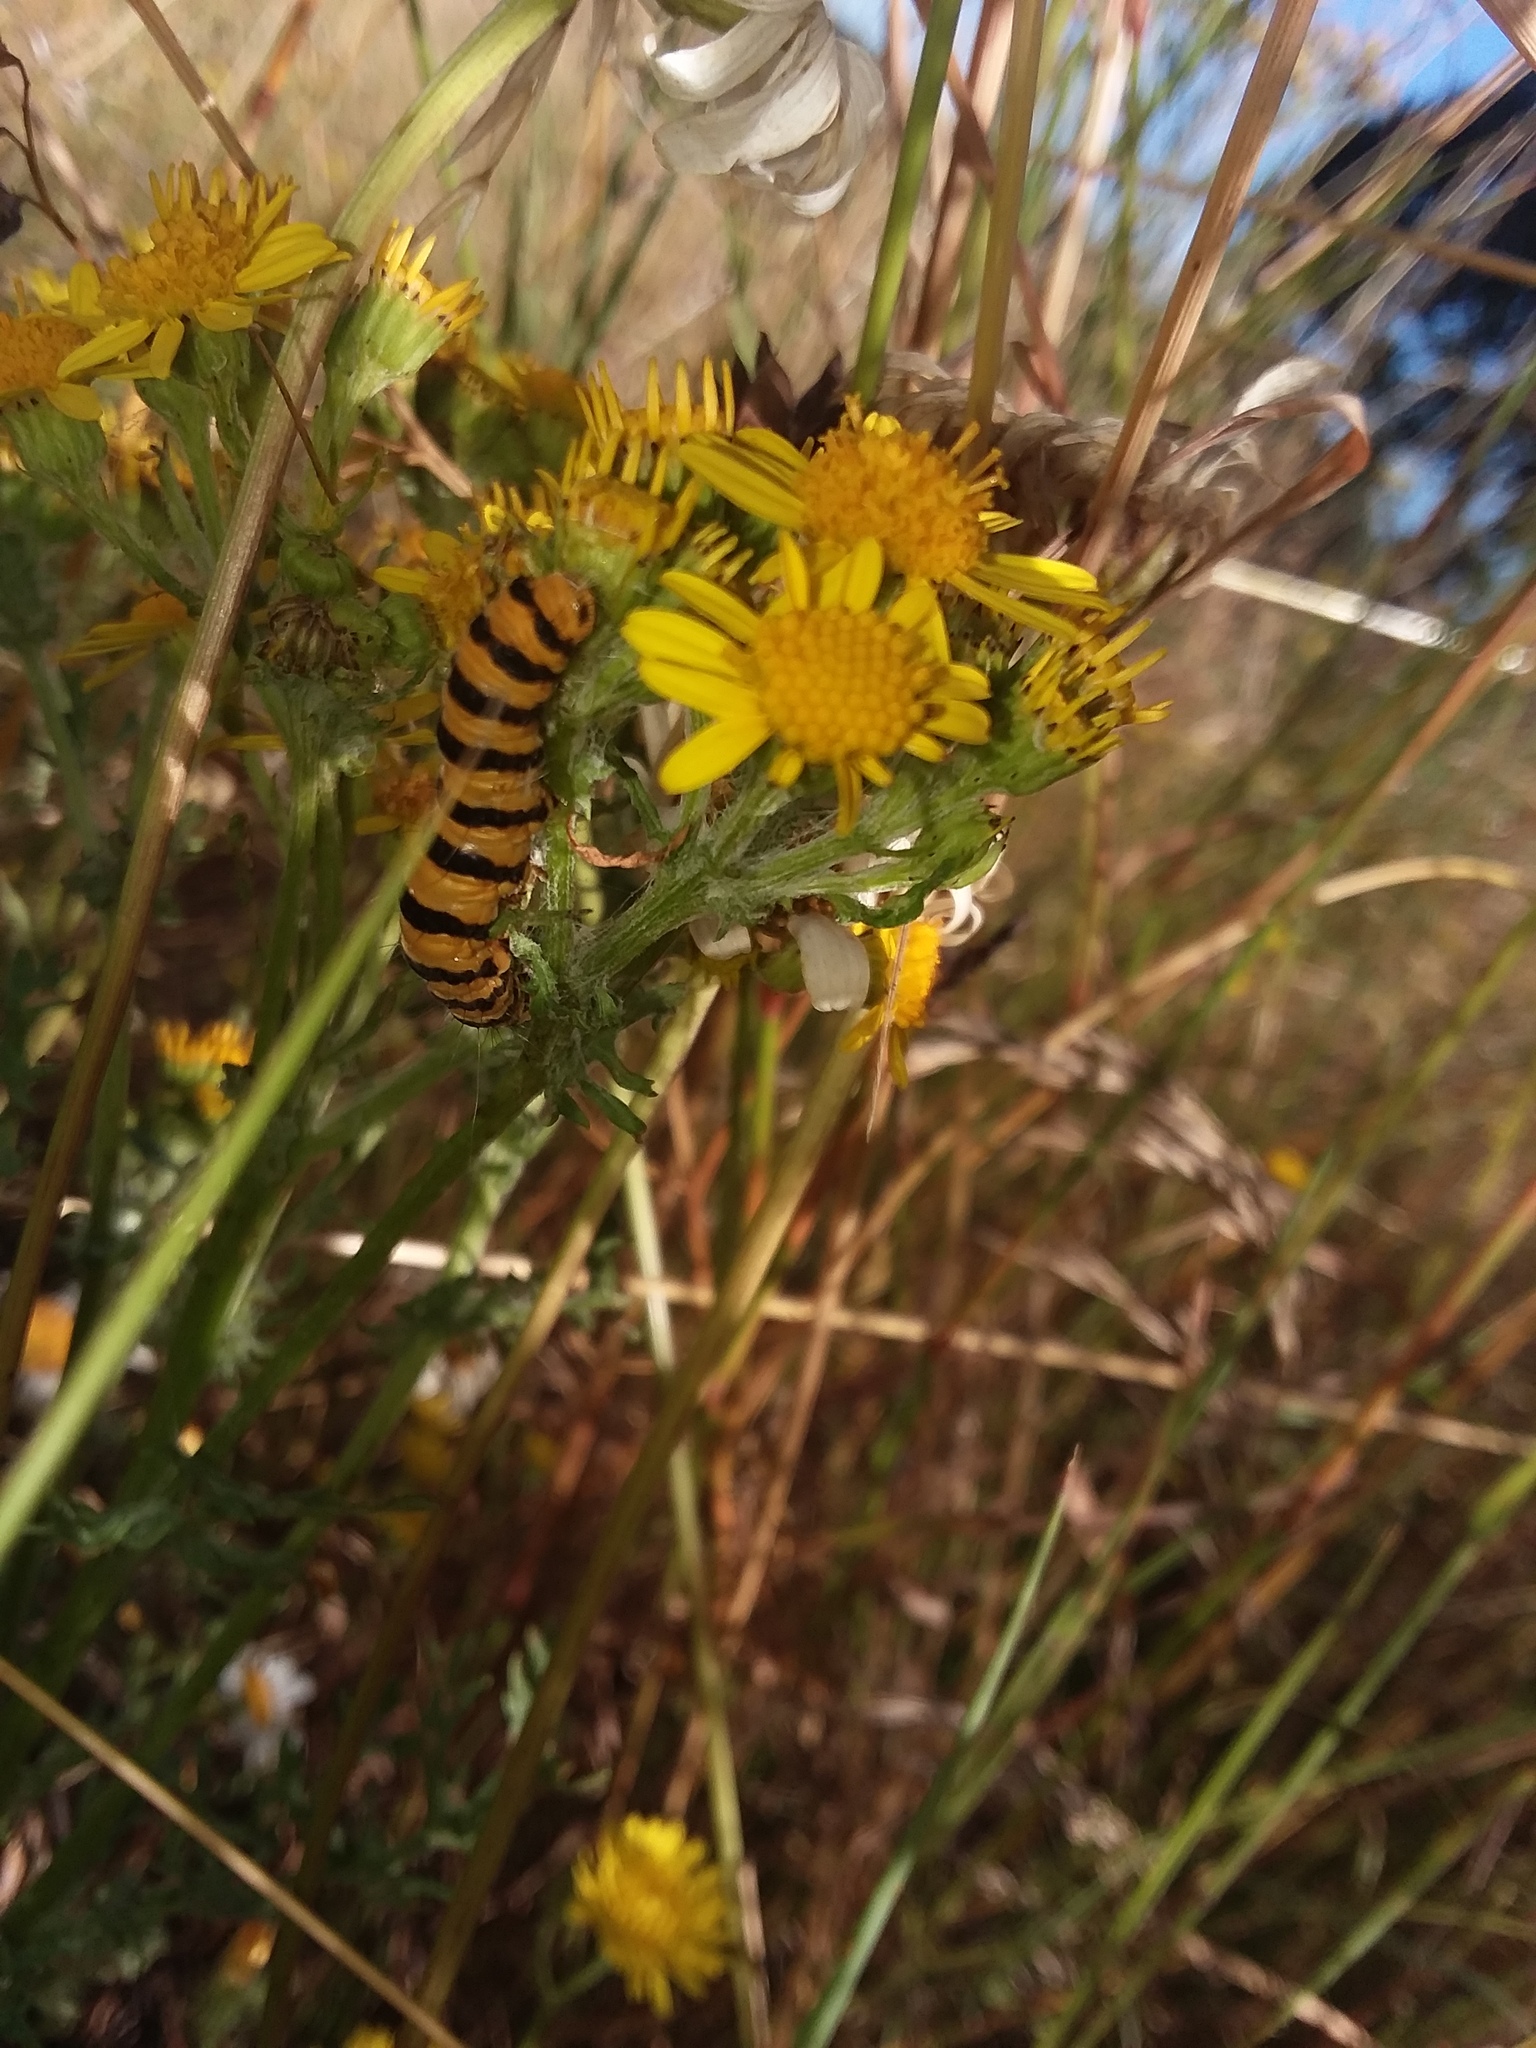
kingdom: Animalia
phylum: Arthropoda
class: Insecta
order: Lepidoptera
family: Erebidae
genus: Tyria
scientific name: Tyria jacobaeae
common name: Cinnabar
